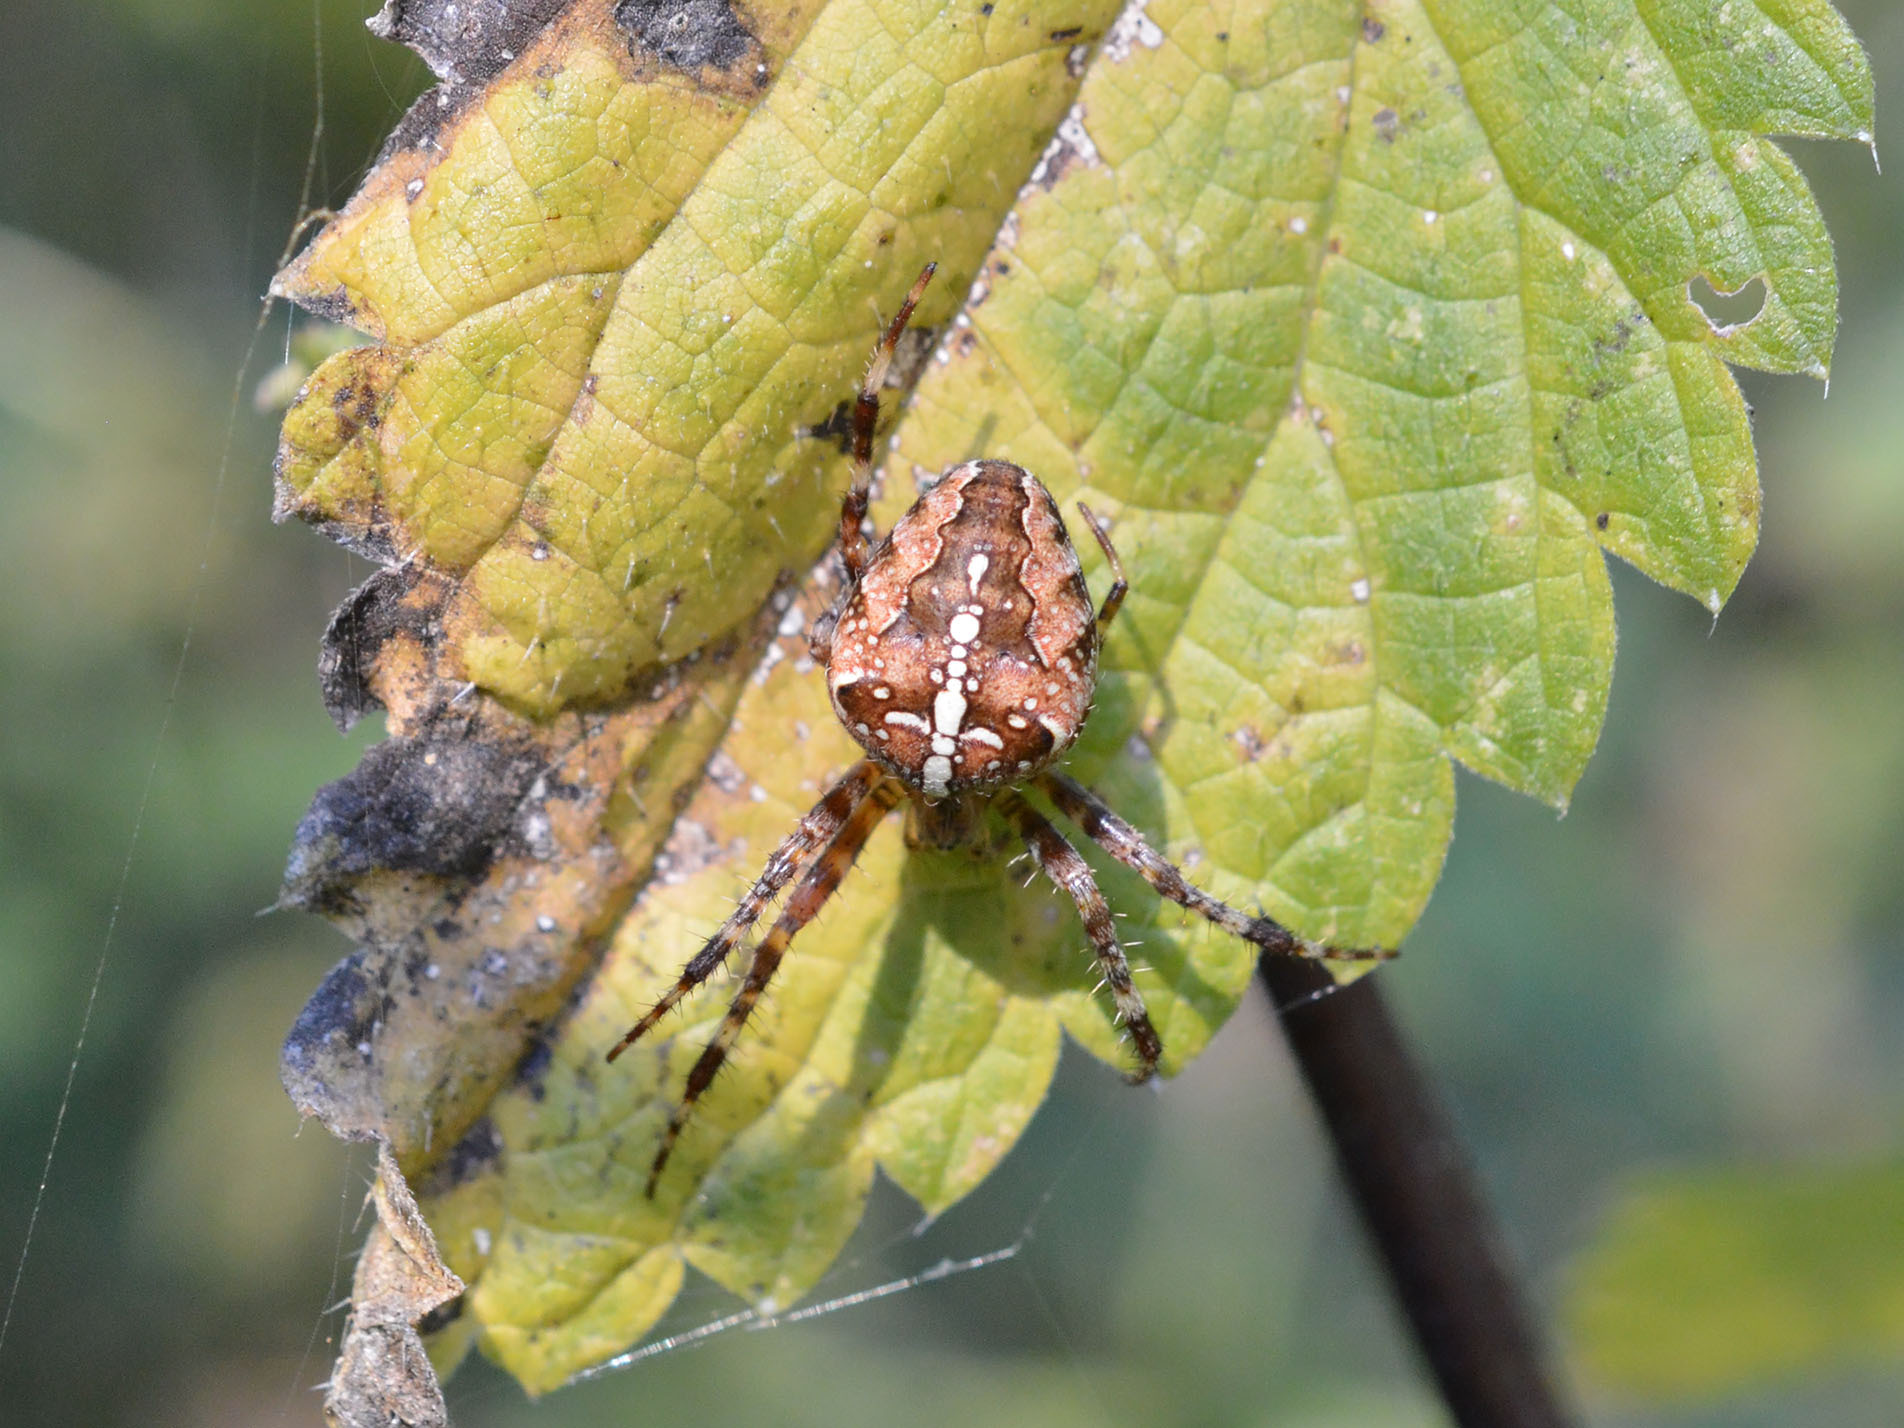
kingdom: Animalia
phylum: Arthropoda
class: Arachnida
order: Araneae
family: Araneidae
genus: Araneus
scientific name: Araneus diadematus
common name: Cross orbweaver
